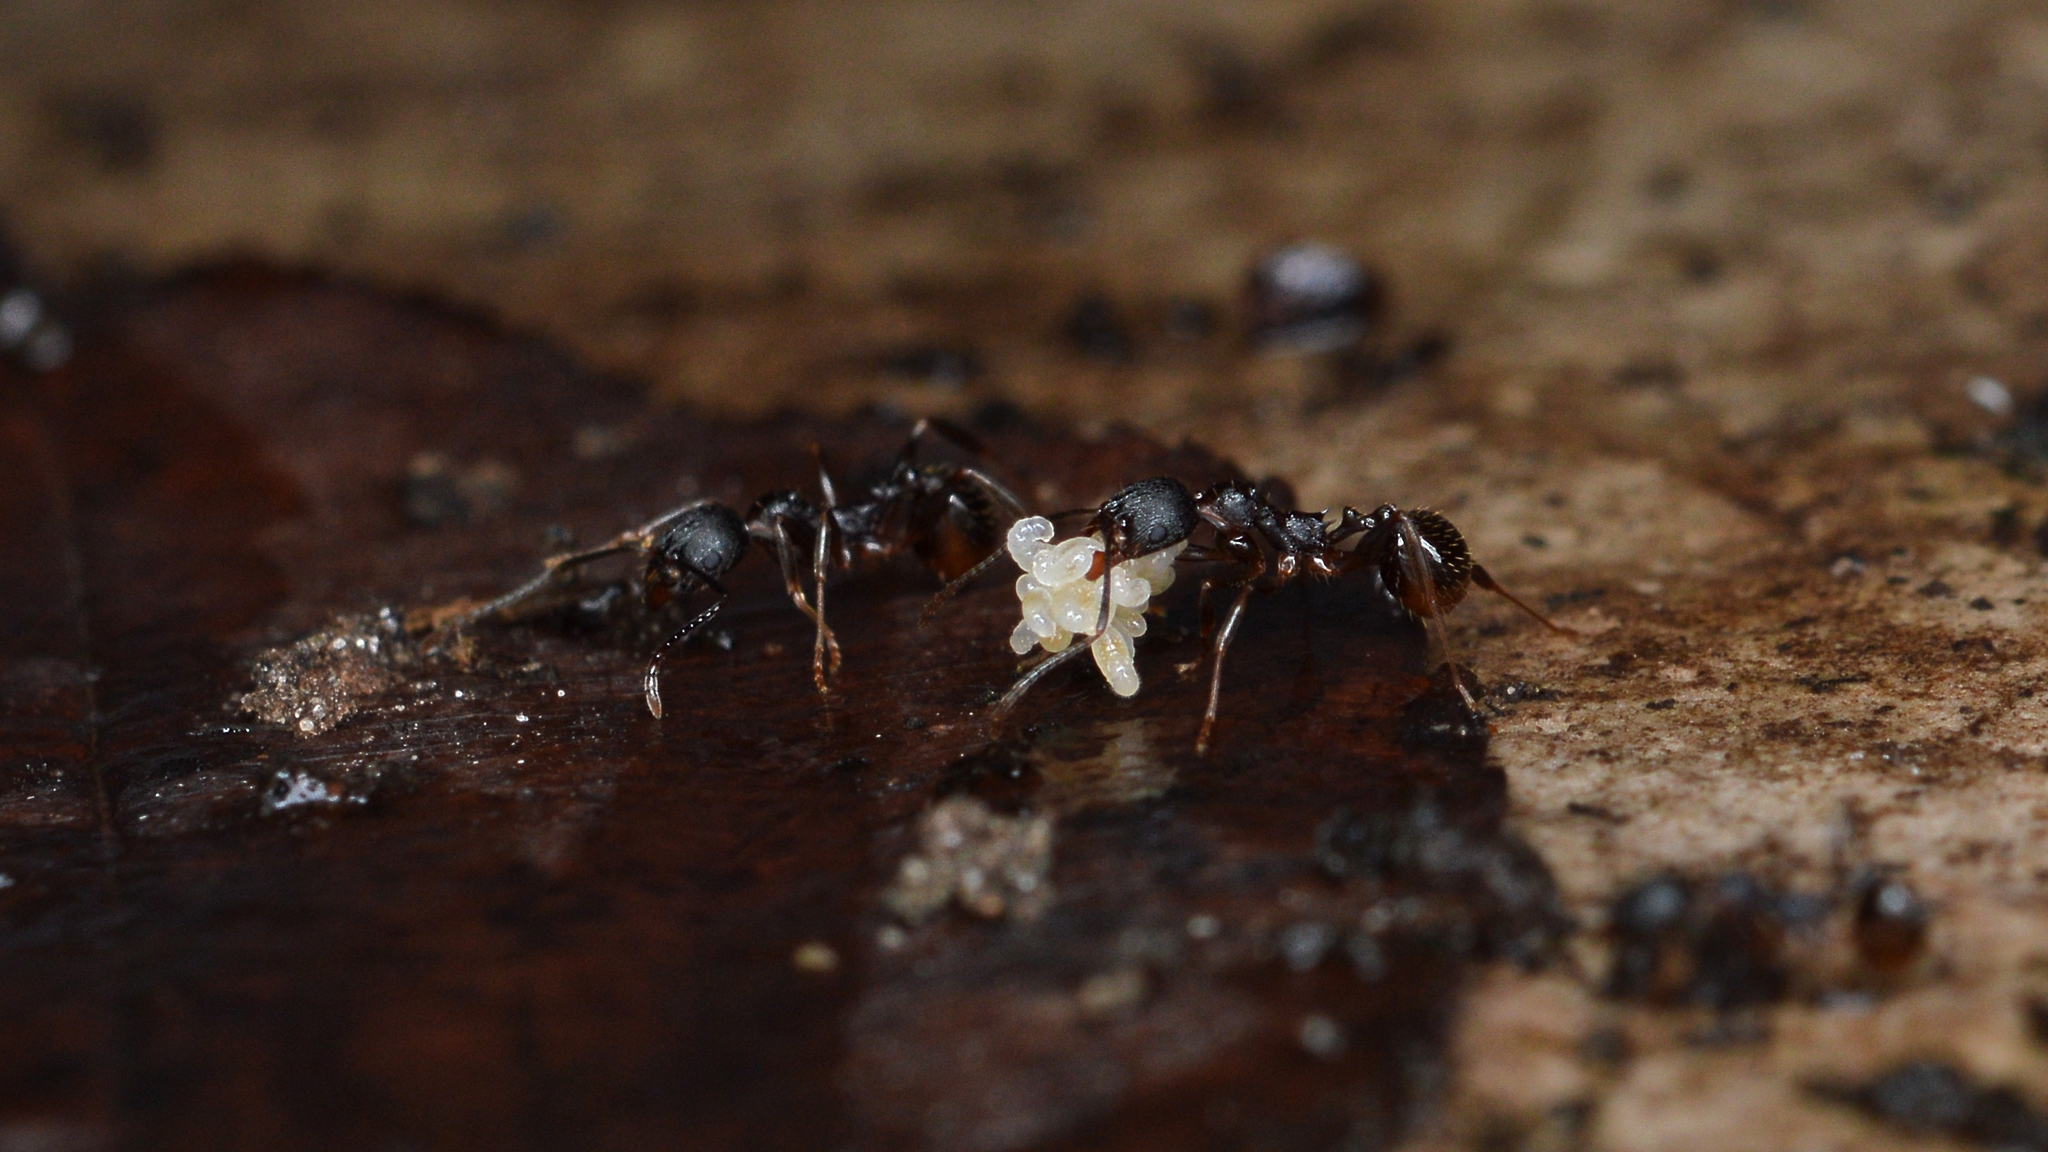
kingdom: Animalia
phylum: Arthropoda
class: Insecta
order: Hymenoptera
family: Formicidae
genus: Aphaenogaster
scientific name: Aphaenogaster picea
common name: Pitch-black collared ant
